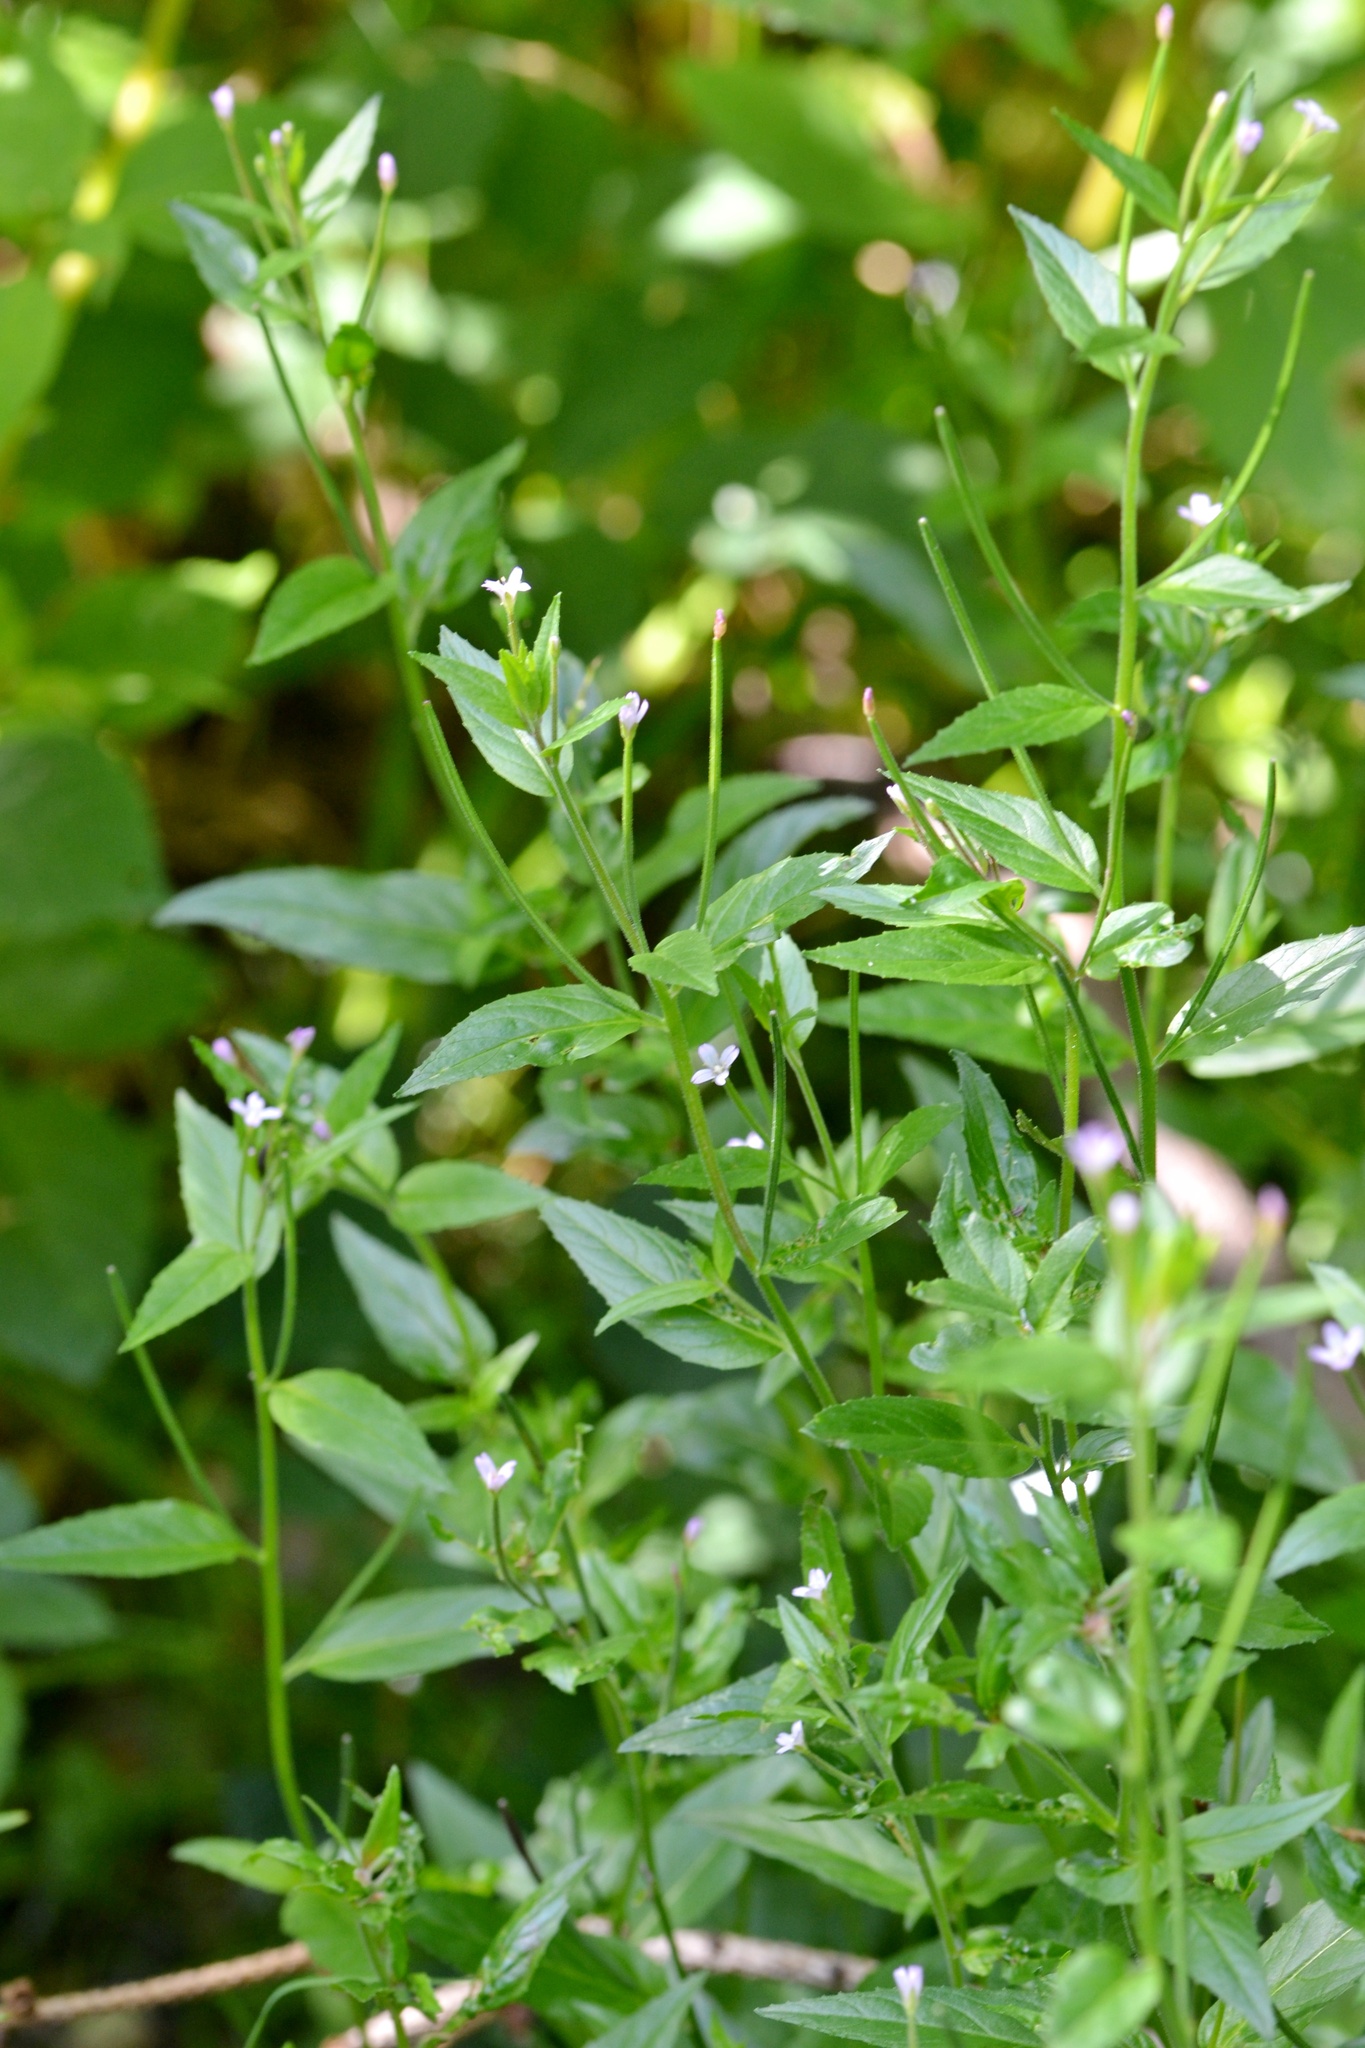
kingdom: Plantae
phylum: Tracheophyta
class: Magnoliopsida
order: Myrtales
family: Onagraceae
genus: Epilobium
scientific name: Epilobium ciliatum
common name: American willowherb
